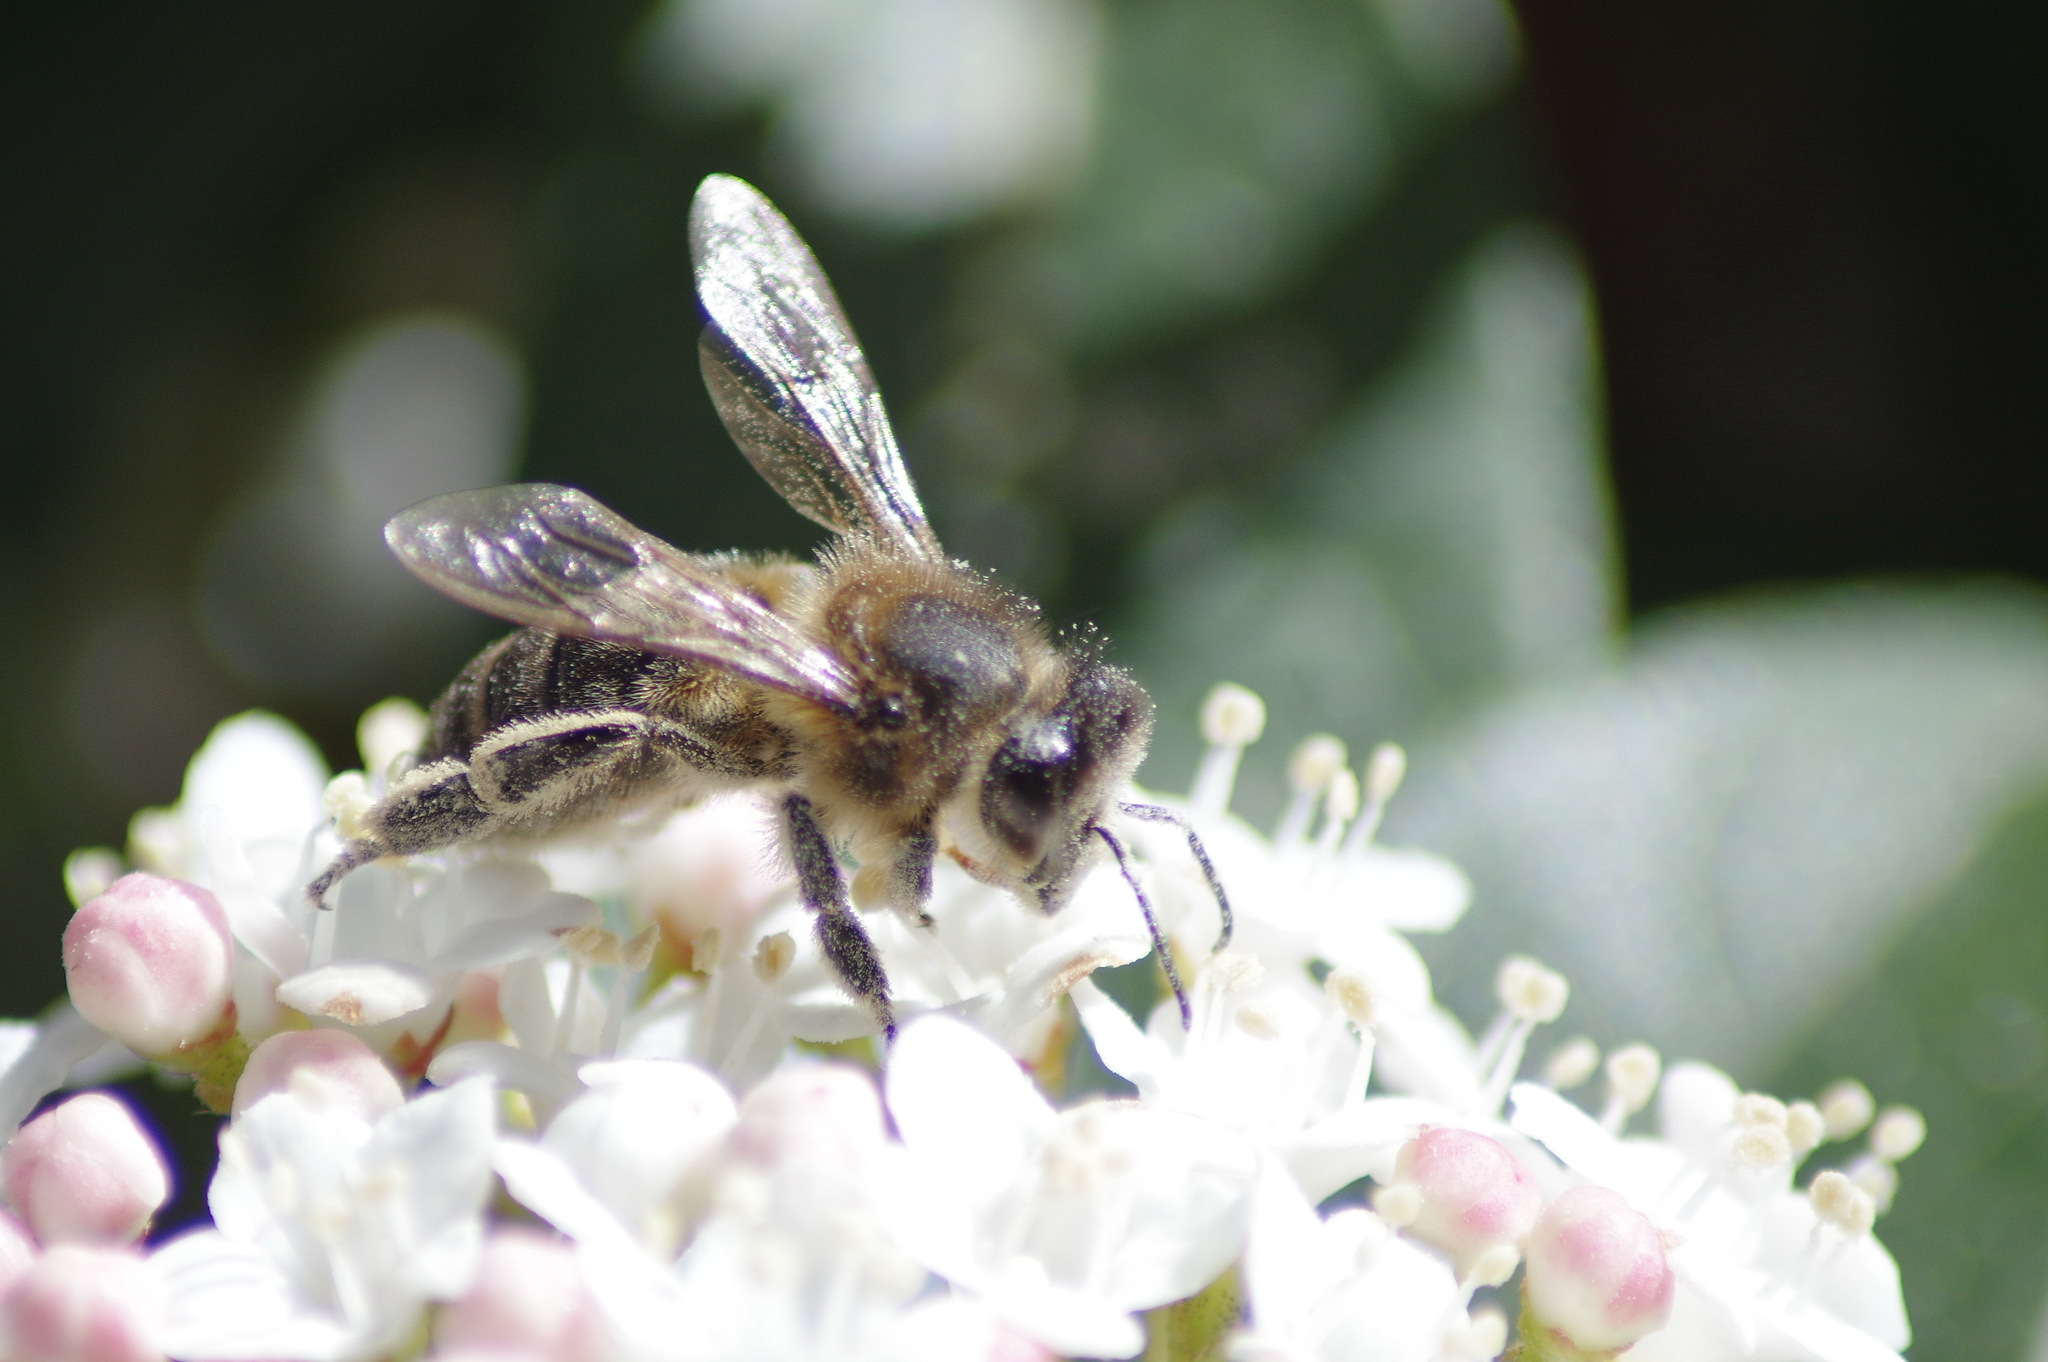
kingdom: Animalia
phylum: Arthropoda
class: Insecta
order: Hymenoptera
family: Apidae
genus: Apis
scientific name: Apis mellifera
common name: Honey bee
